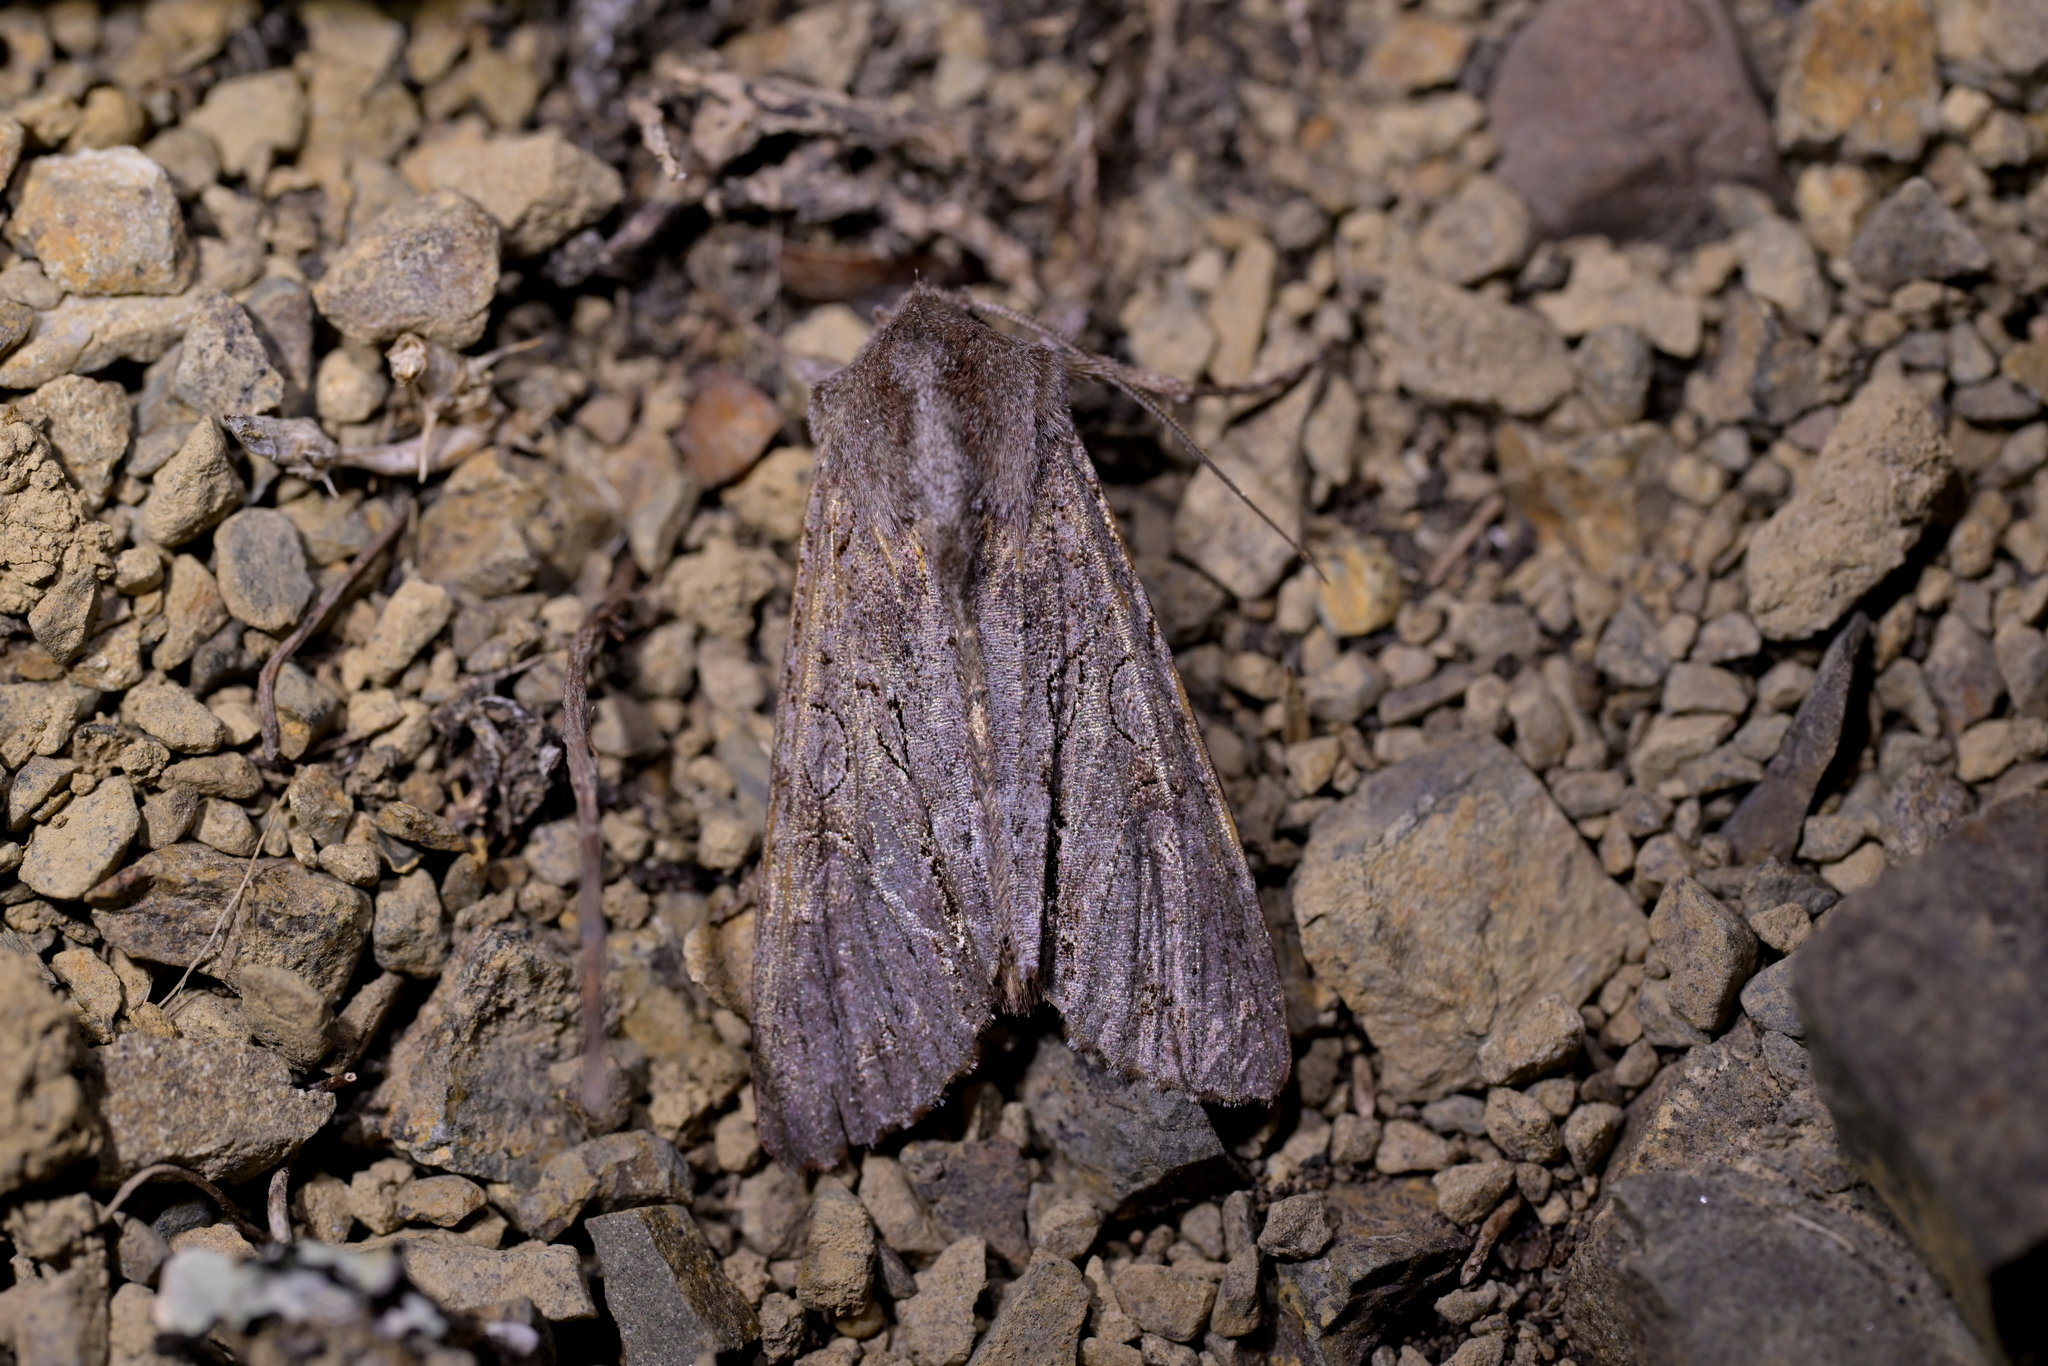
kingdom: Animalia
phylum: Arthropoda
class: Insecta
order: Lepidoptera
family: Noctuidae
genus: Ichneutica
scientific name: Ichneutica
